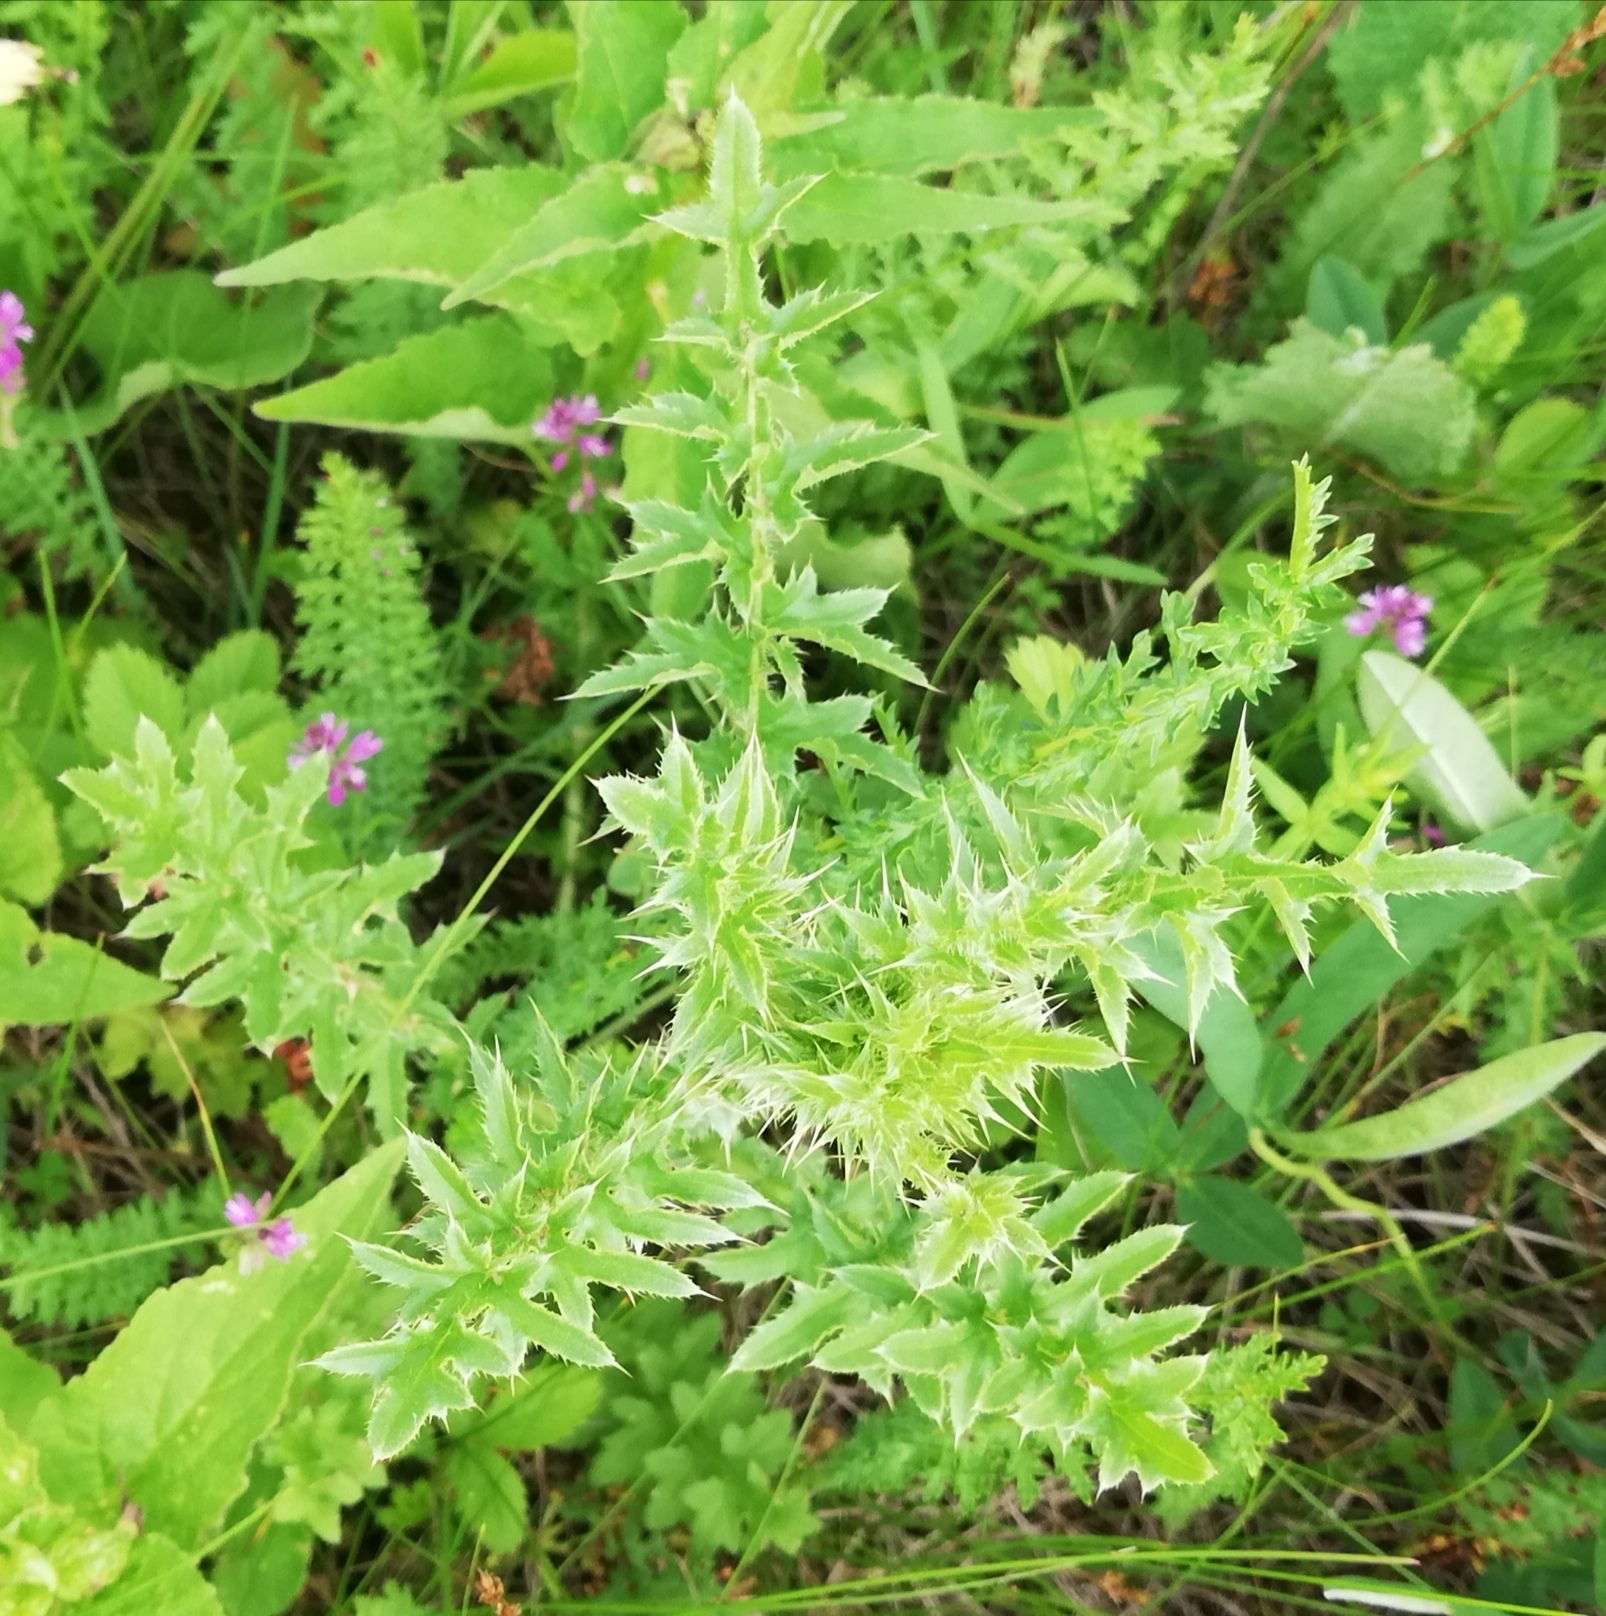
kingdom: Plantae
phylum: Tracheophyta
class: Magnoliopsida
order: Asterales
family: Asteraceae
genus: Carduus
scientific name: Carduus acanthoides
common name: Plumeless thistle
